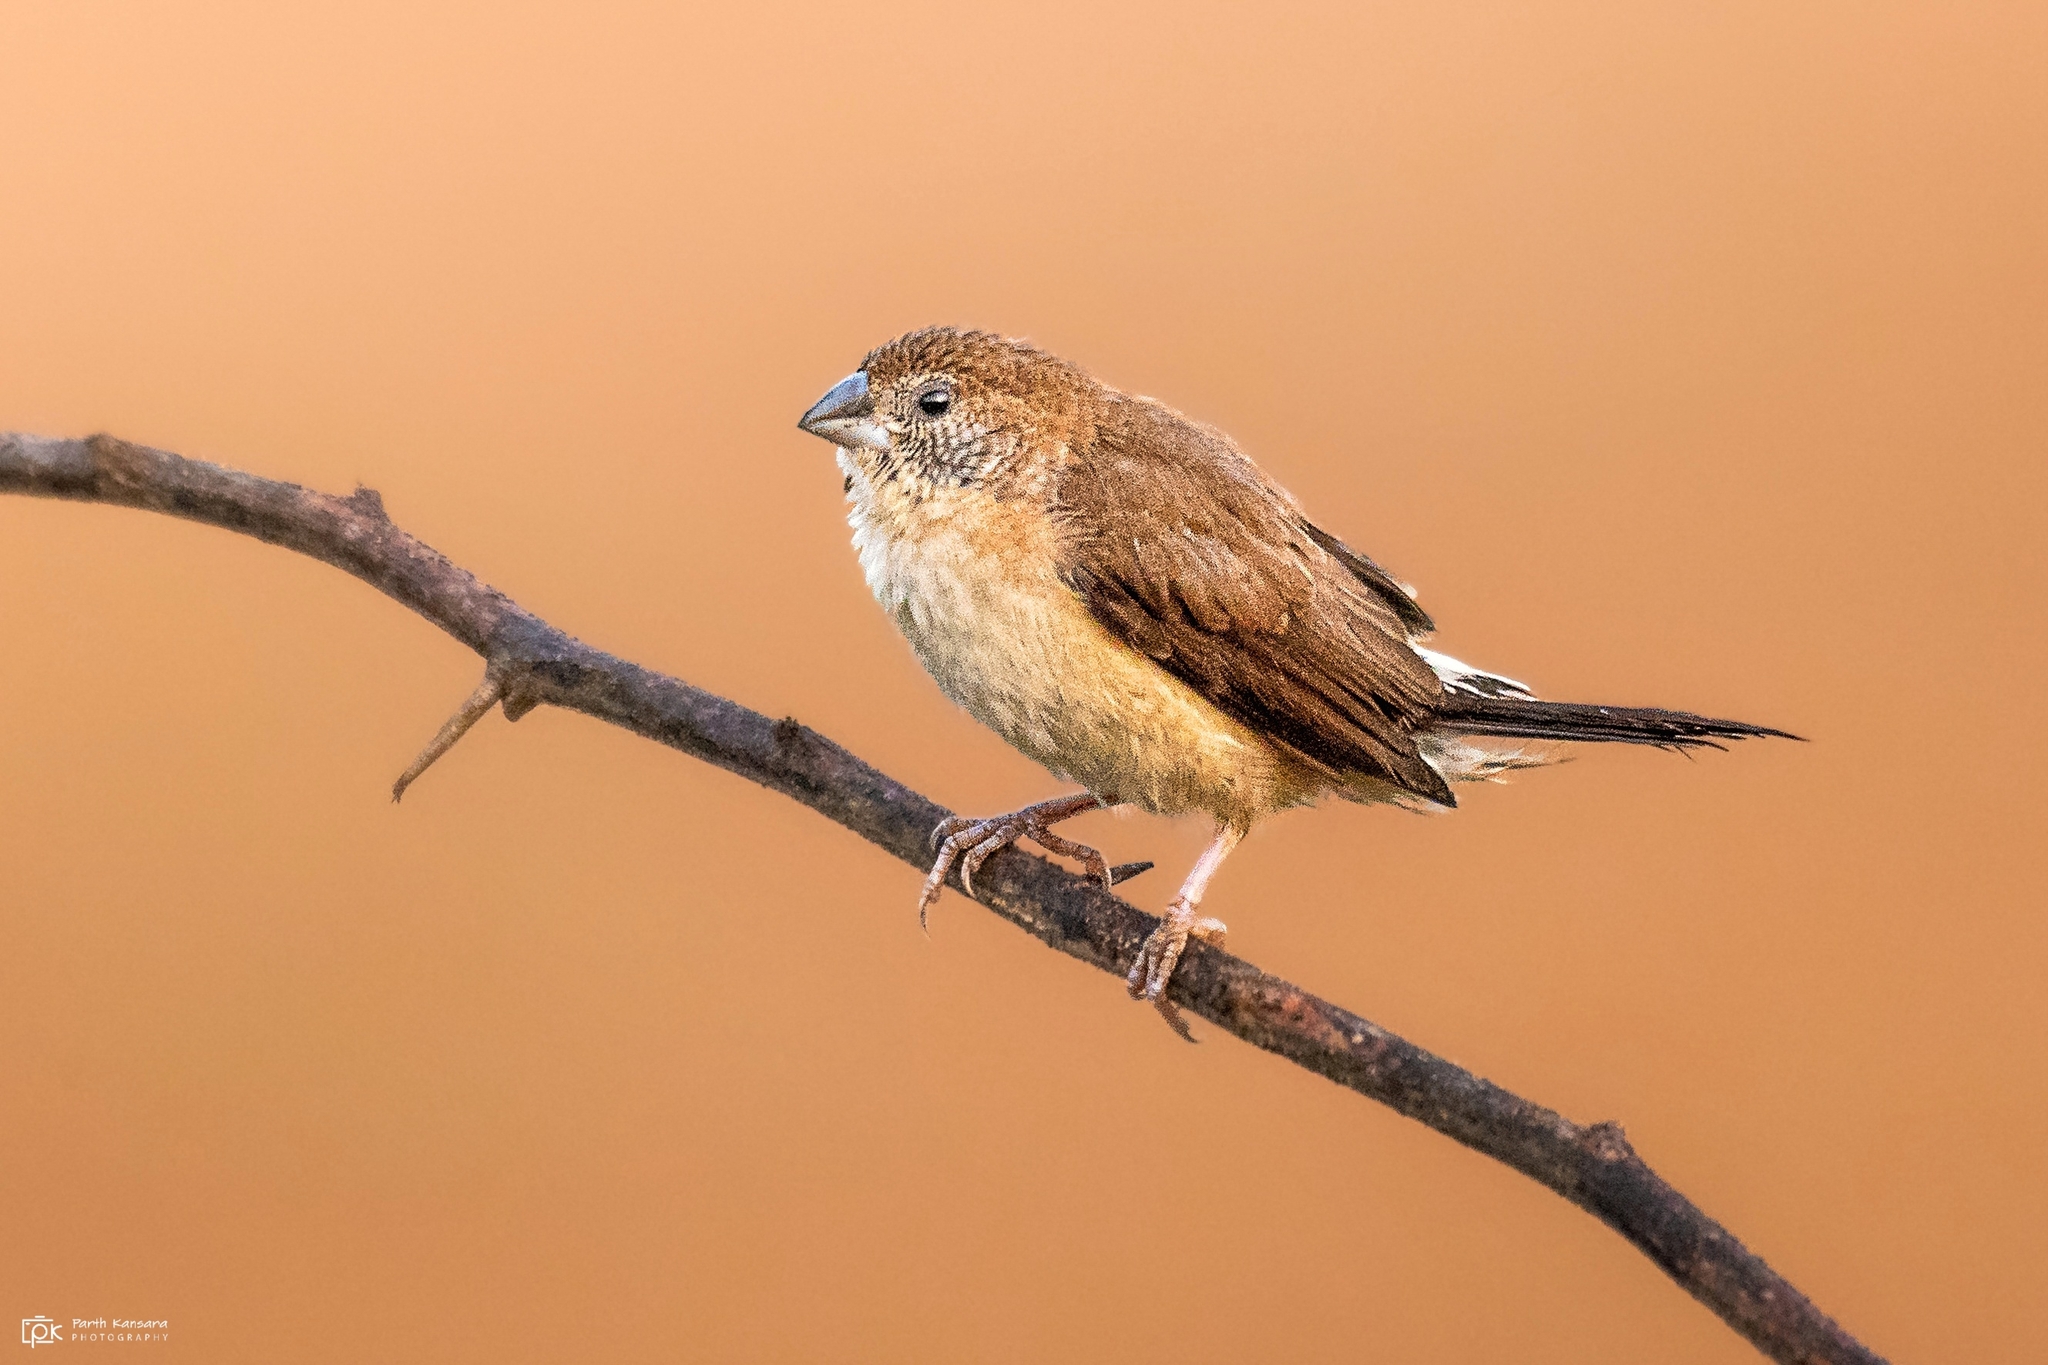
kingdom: Animalia
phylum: Chordata
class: Aves
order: Passeriformes
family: Estrildidae
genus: Euodice
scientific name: Euodice malabarica
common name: Indian silverbill
